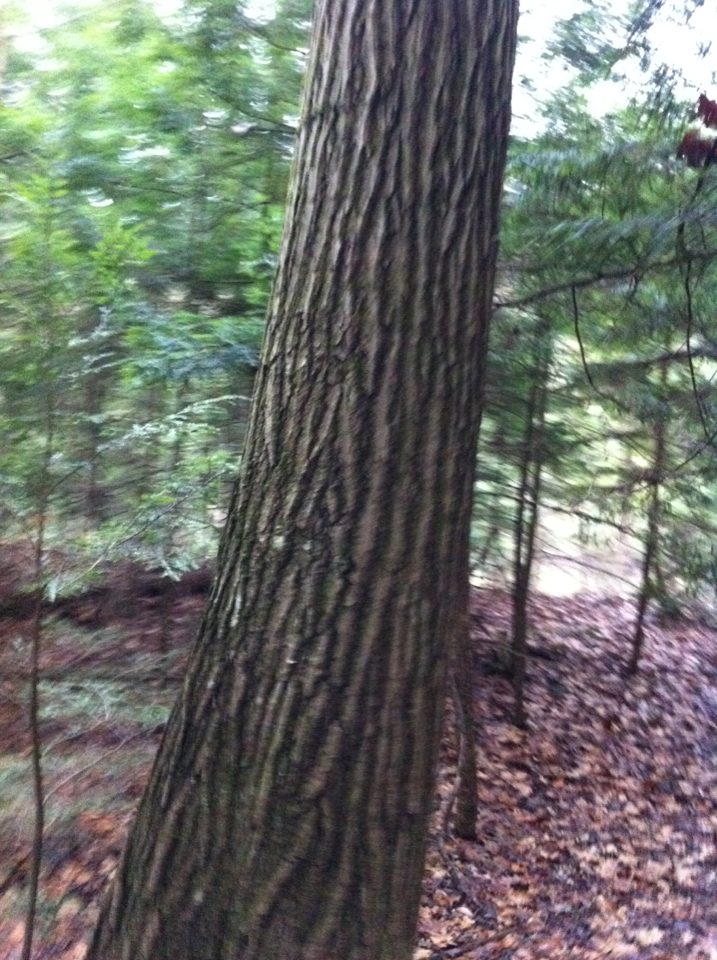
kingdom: Plantae
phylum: Tracheophyta
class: Magnoliopsida
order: Fagales
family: Fagaceae
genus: Quercus
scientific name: Quercus rubra
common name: Red oak
